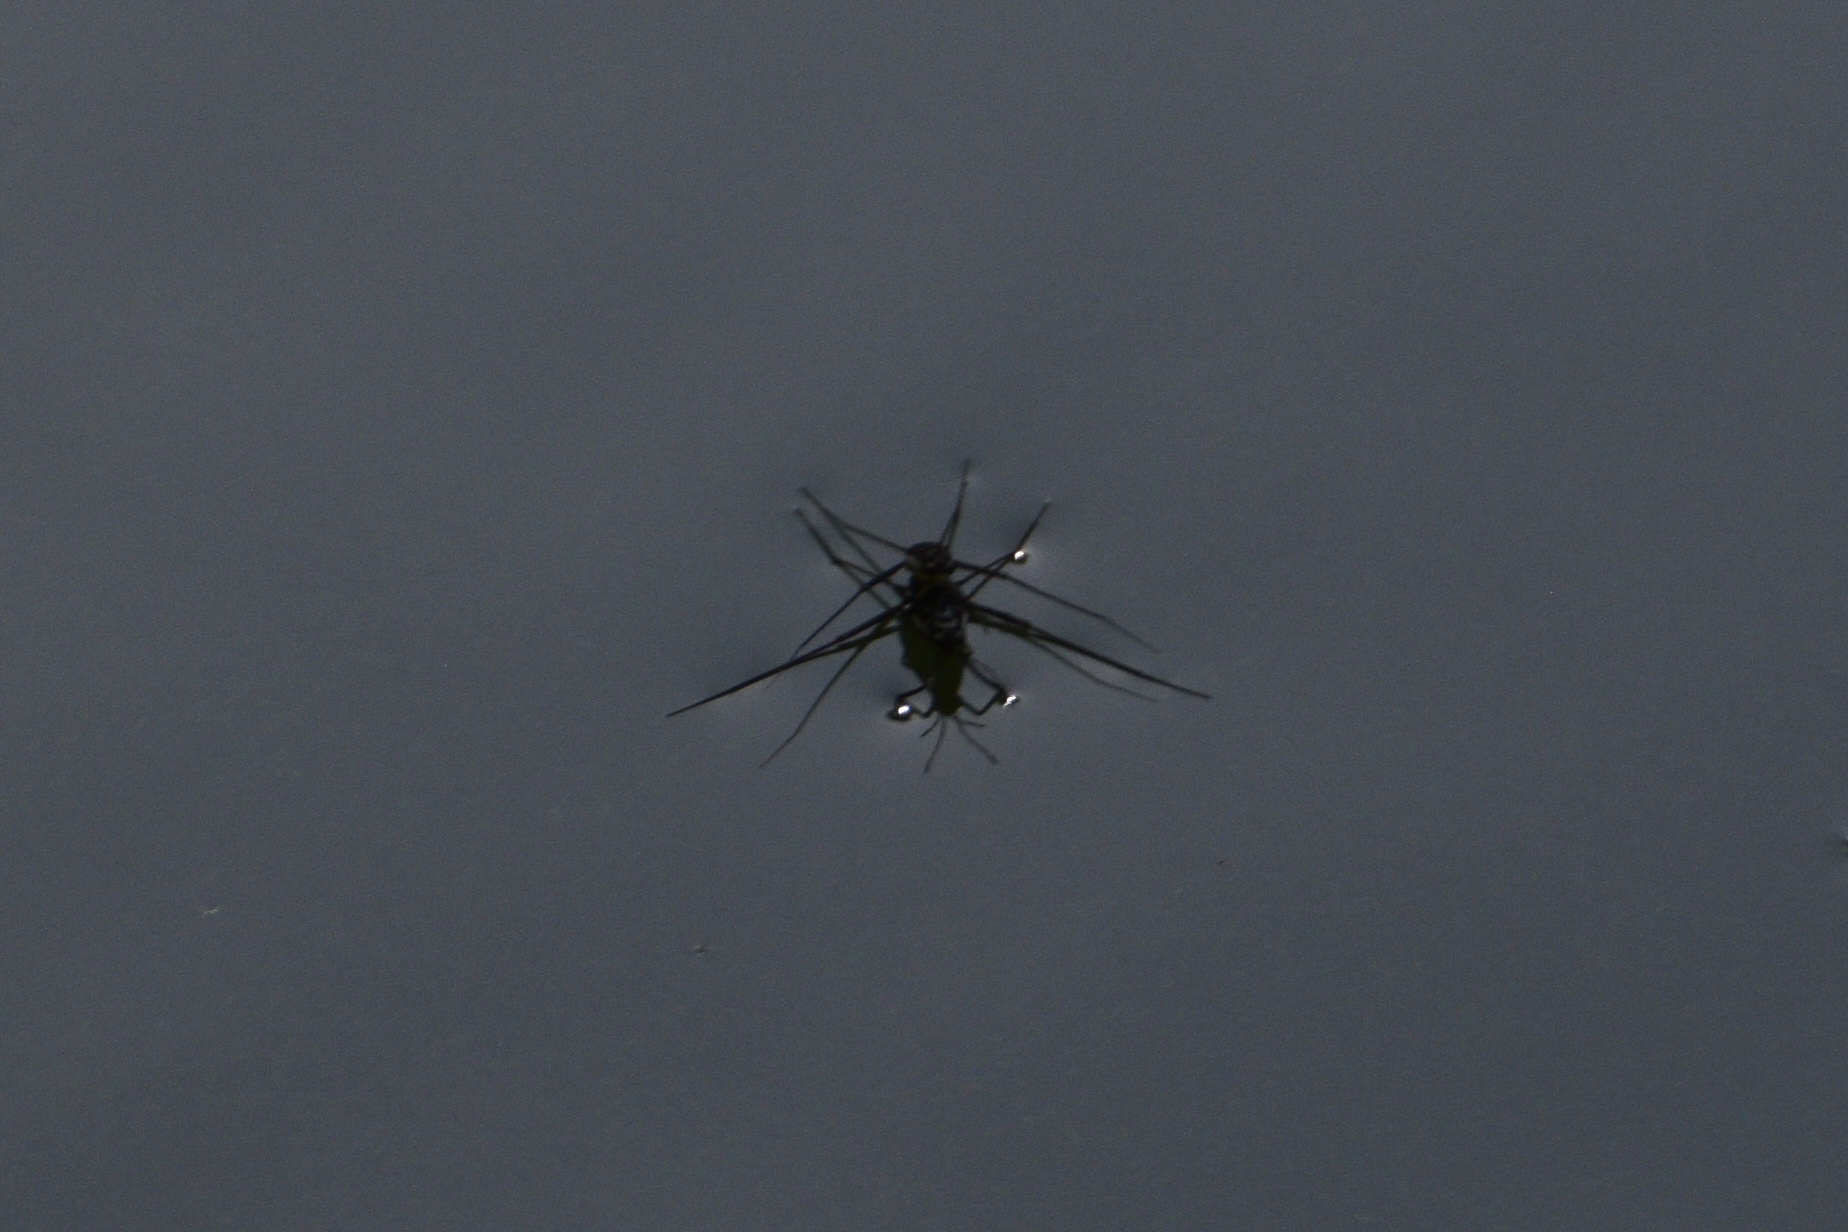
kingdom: Animalia
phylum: Arthropoda
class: Insecta
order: Hemiptera
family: Gerridae
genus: Trepobates
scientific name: Trepobates
